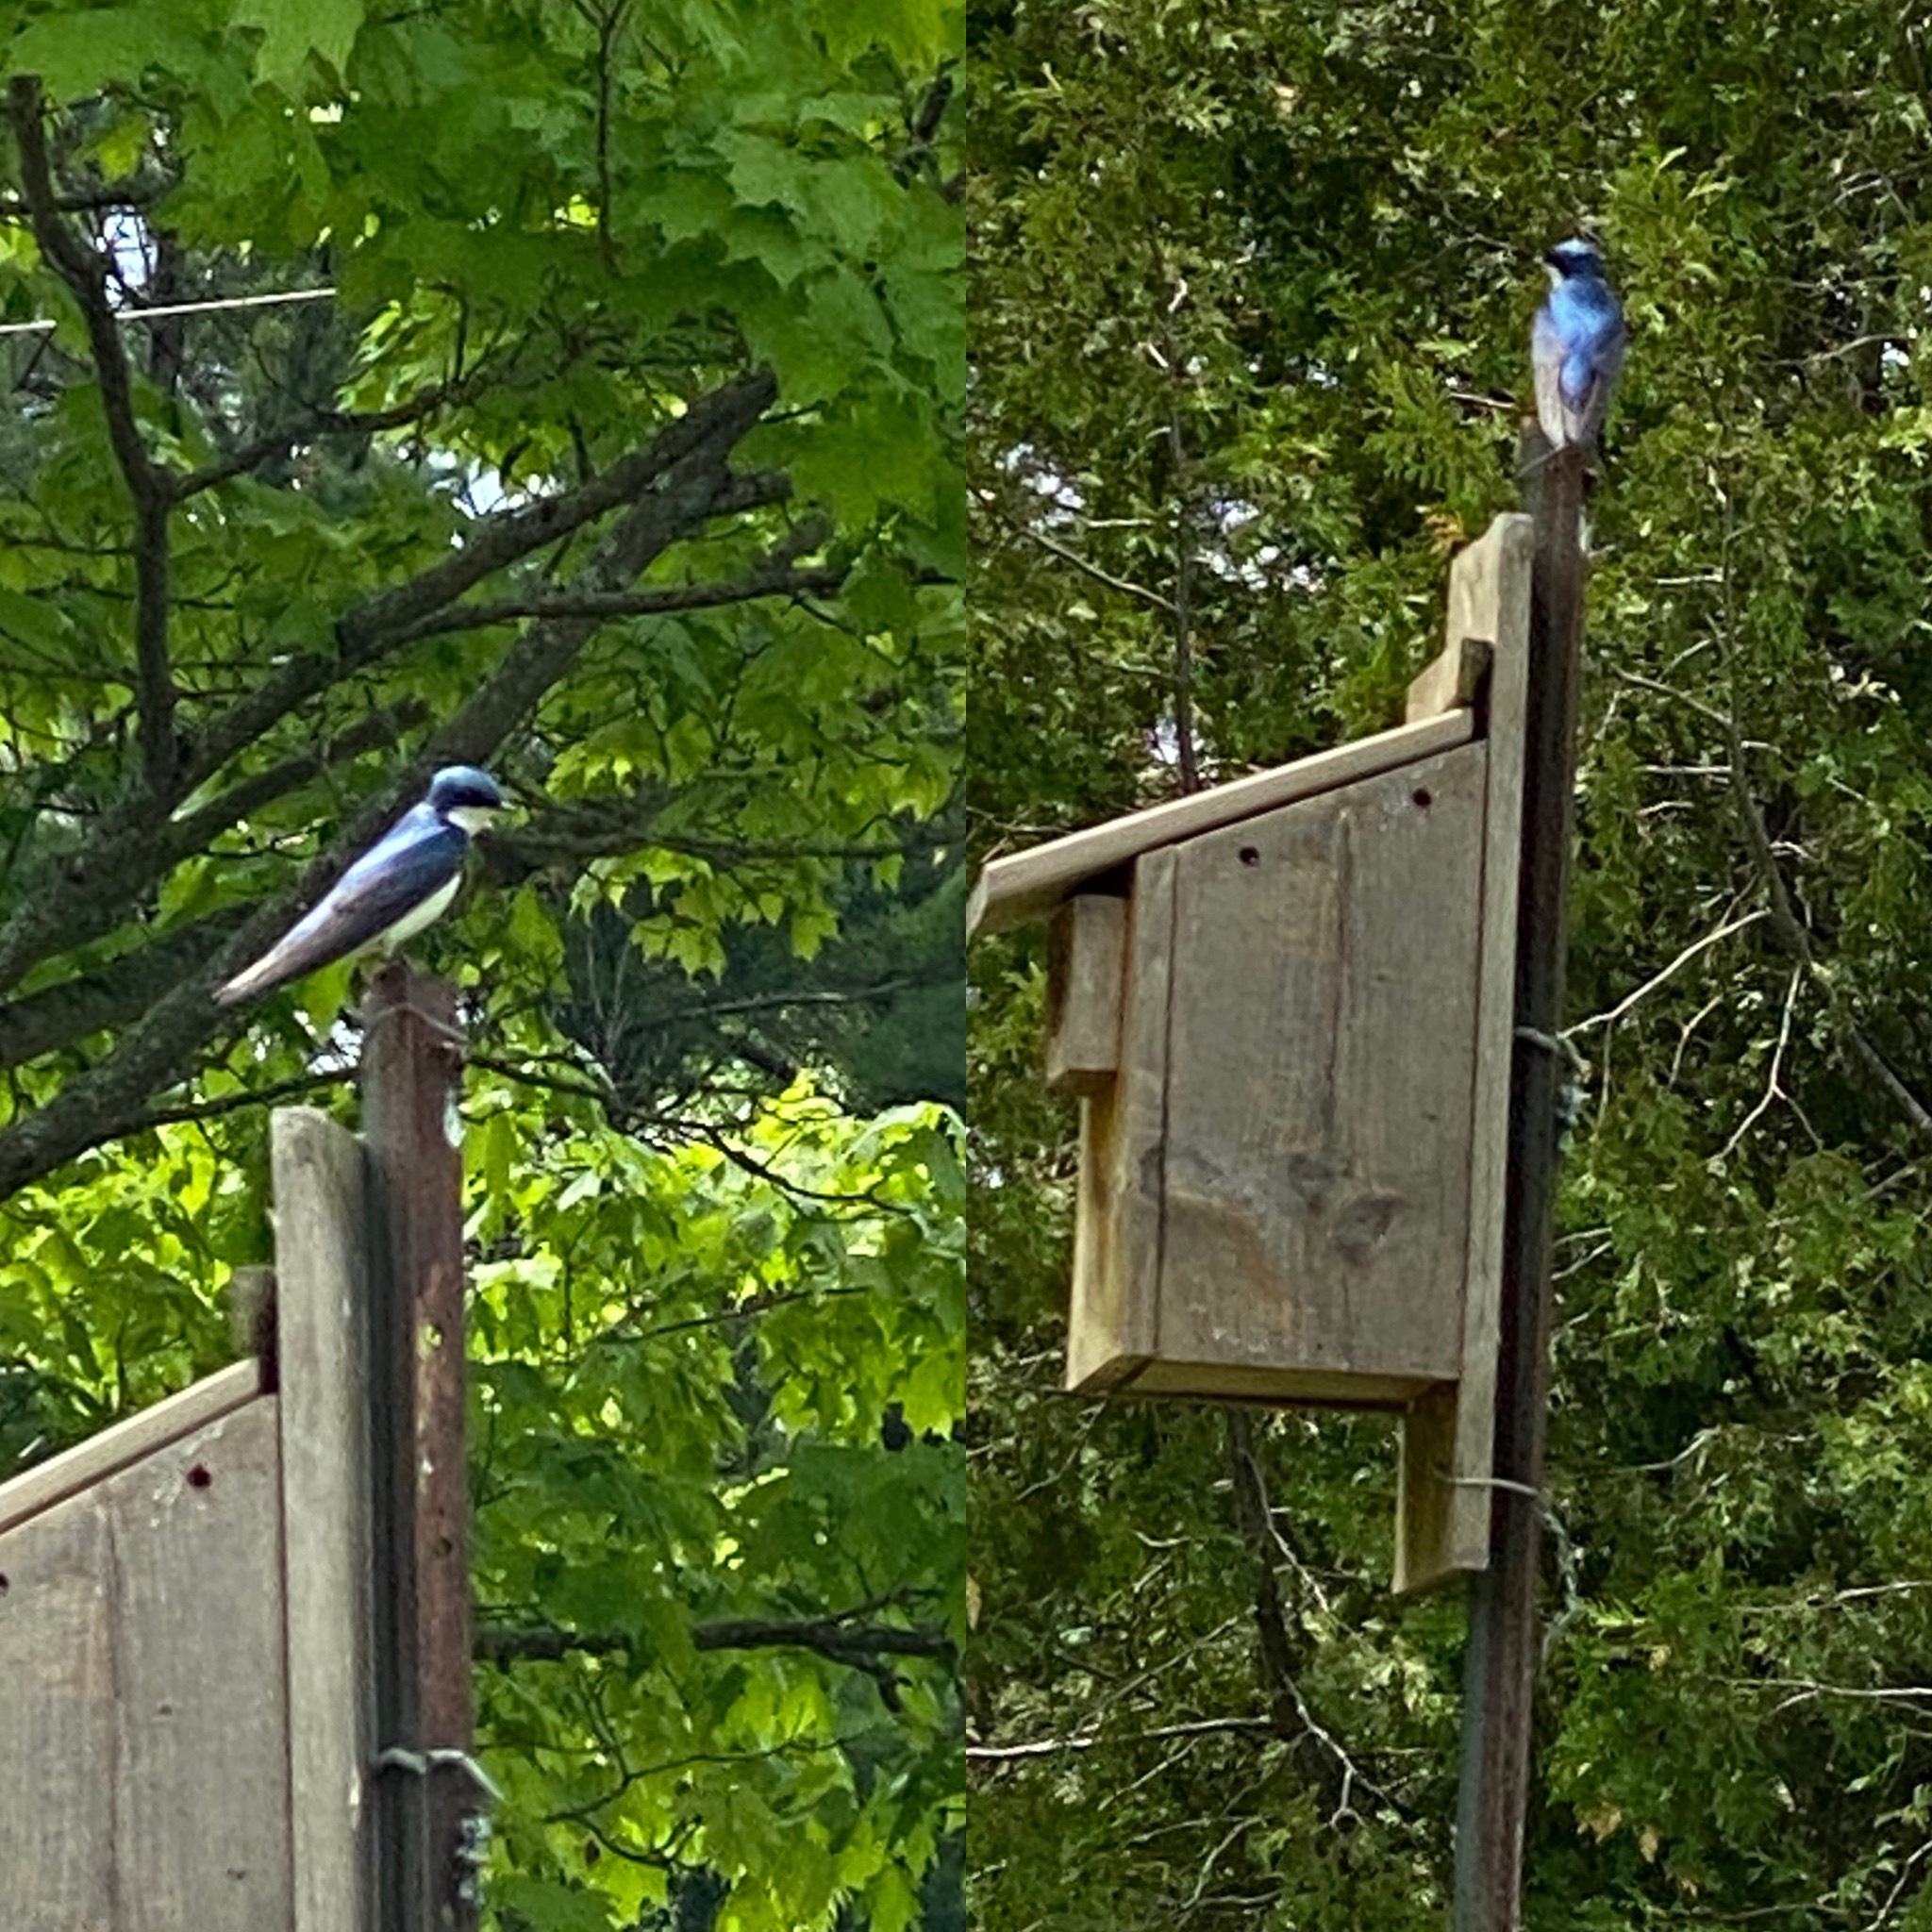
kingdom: Animalia
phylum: Chordata
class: Aves
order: Passeriformes
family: Hirundinidae
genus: Tachycineta
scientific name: Tachycineta bicolor
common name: Tree swallow
